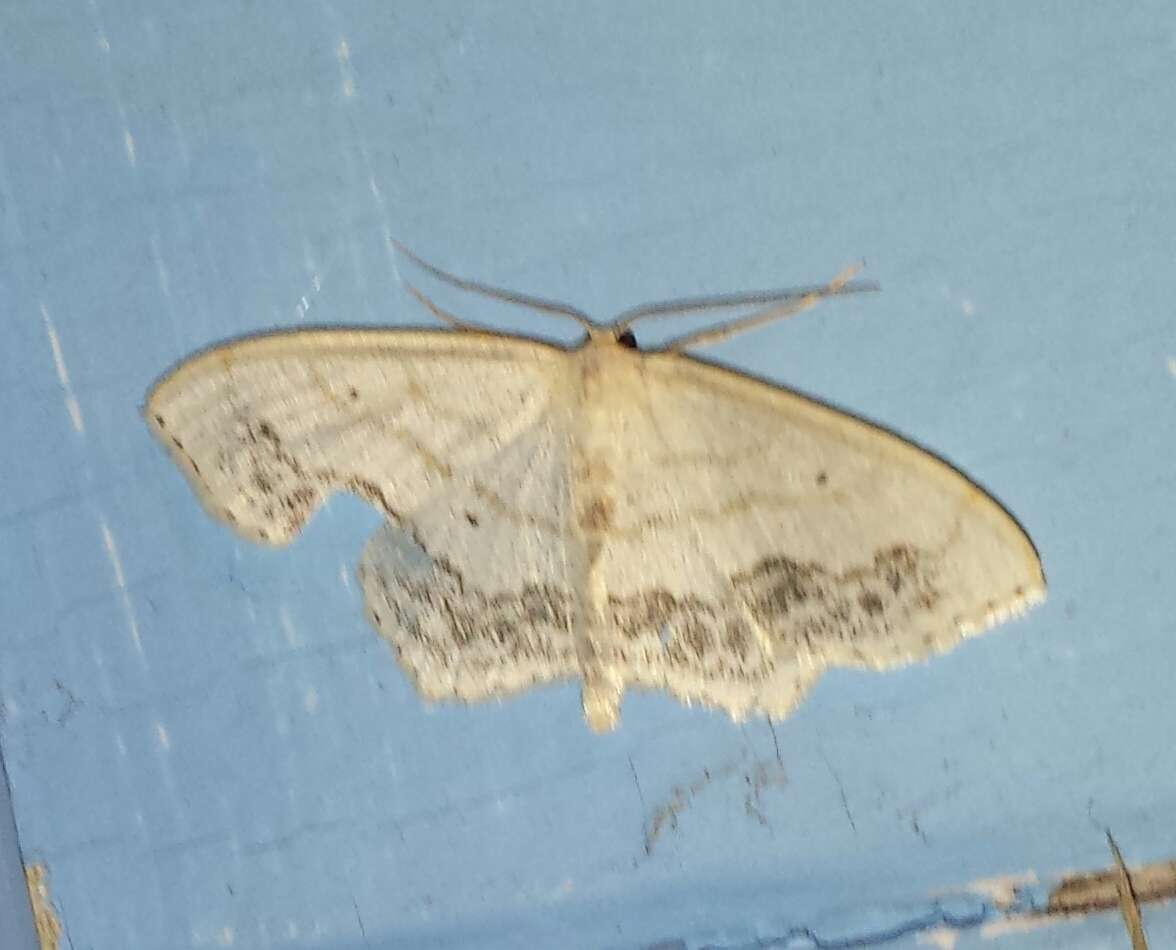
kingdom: Animalia
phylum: Arthropoda
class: Insecta
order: Lepidoptera
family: Geometridae
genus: Scopula
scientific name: Scopula limboundata
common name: Large lace border
